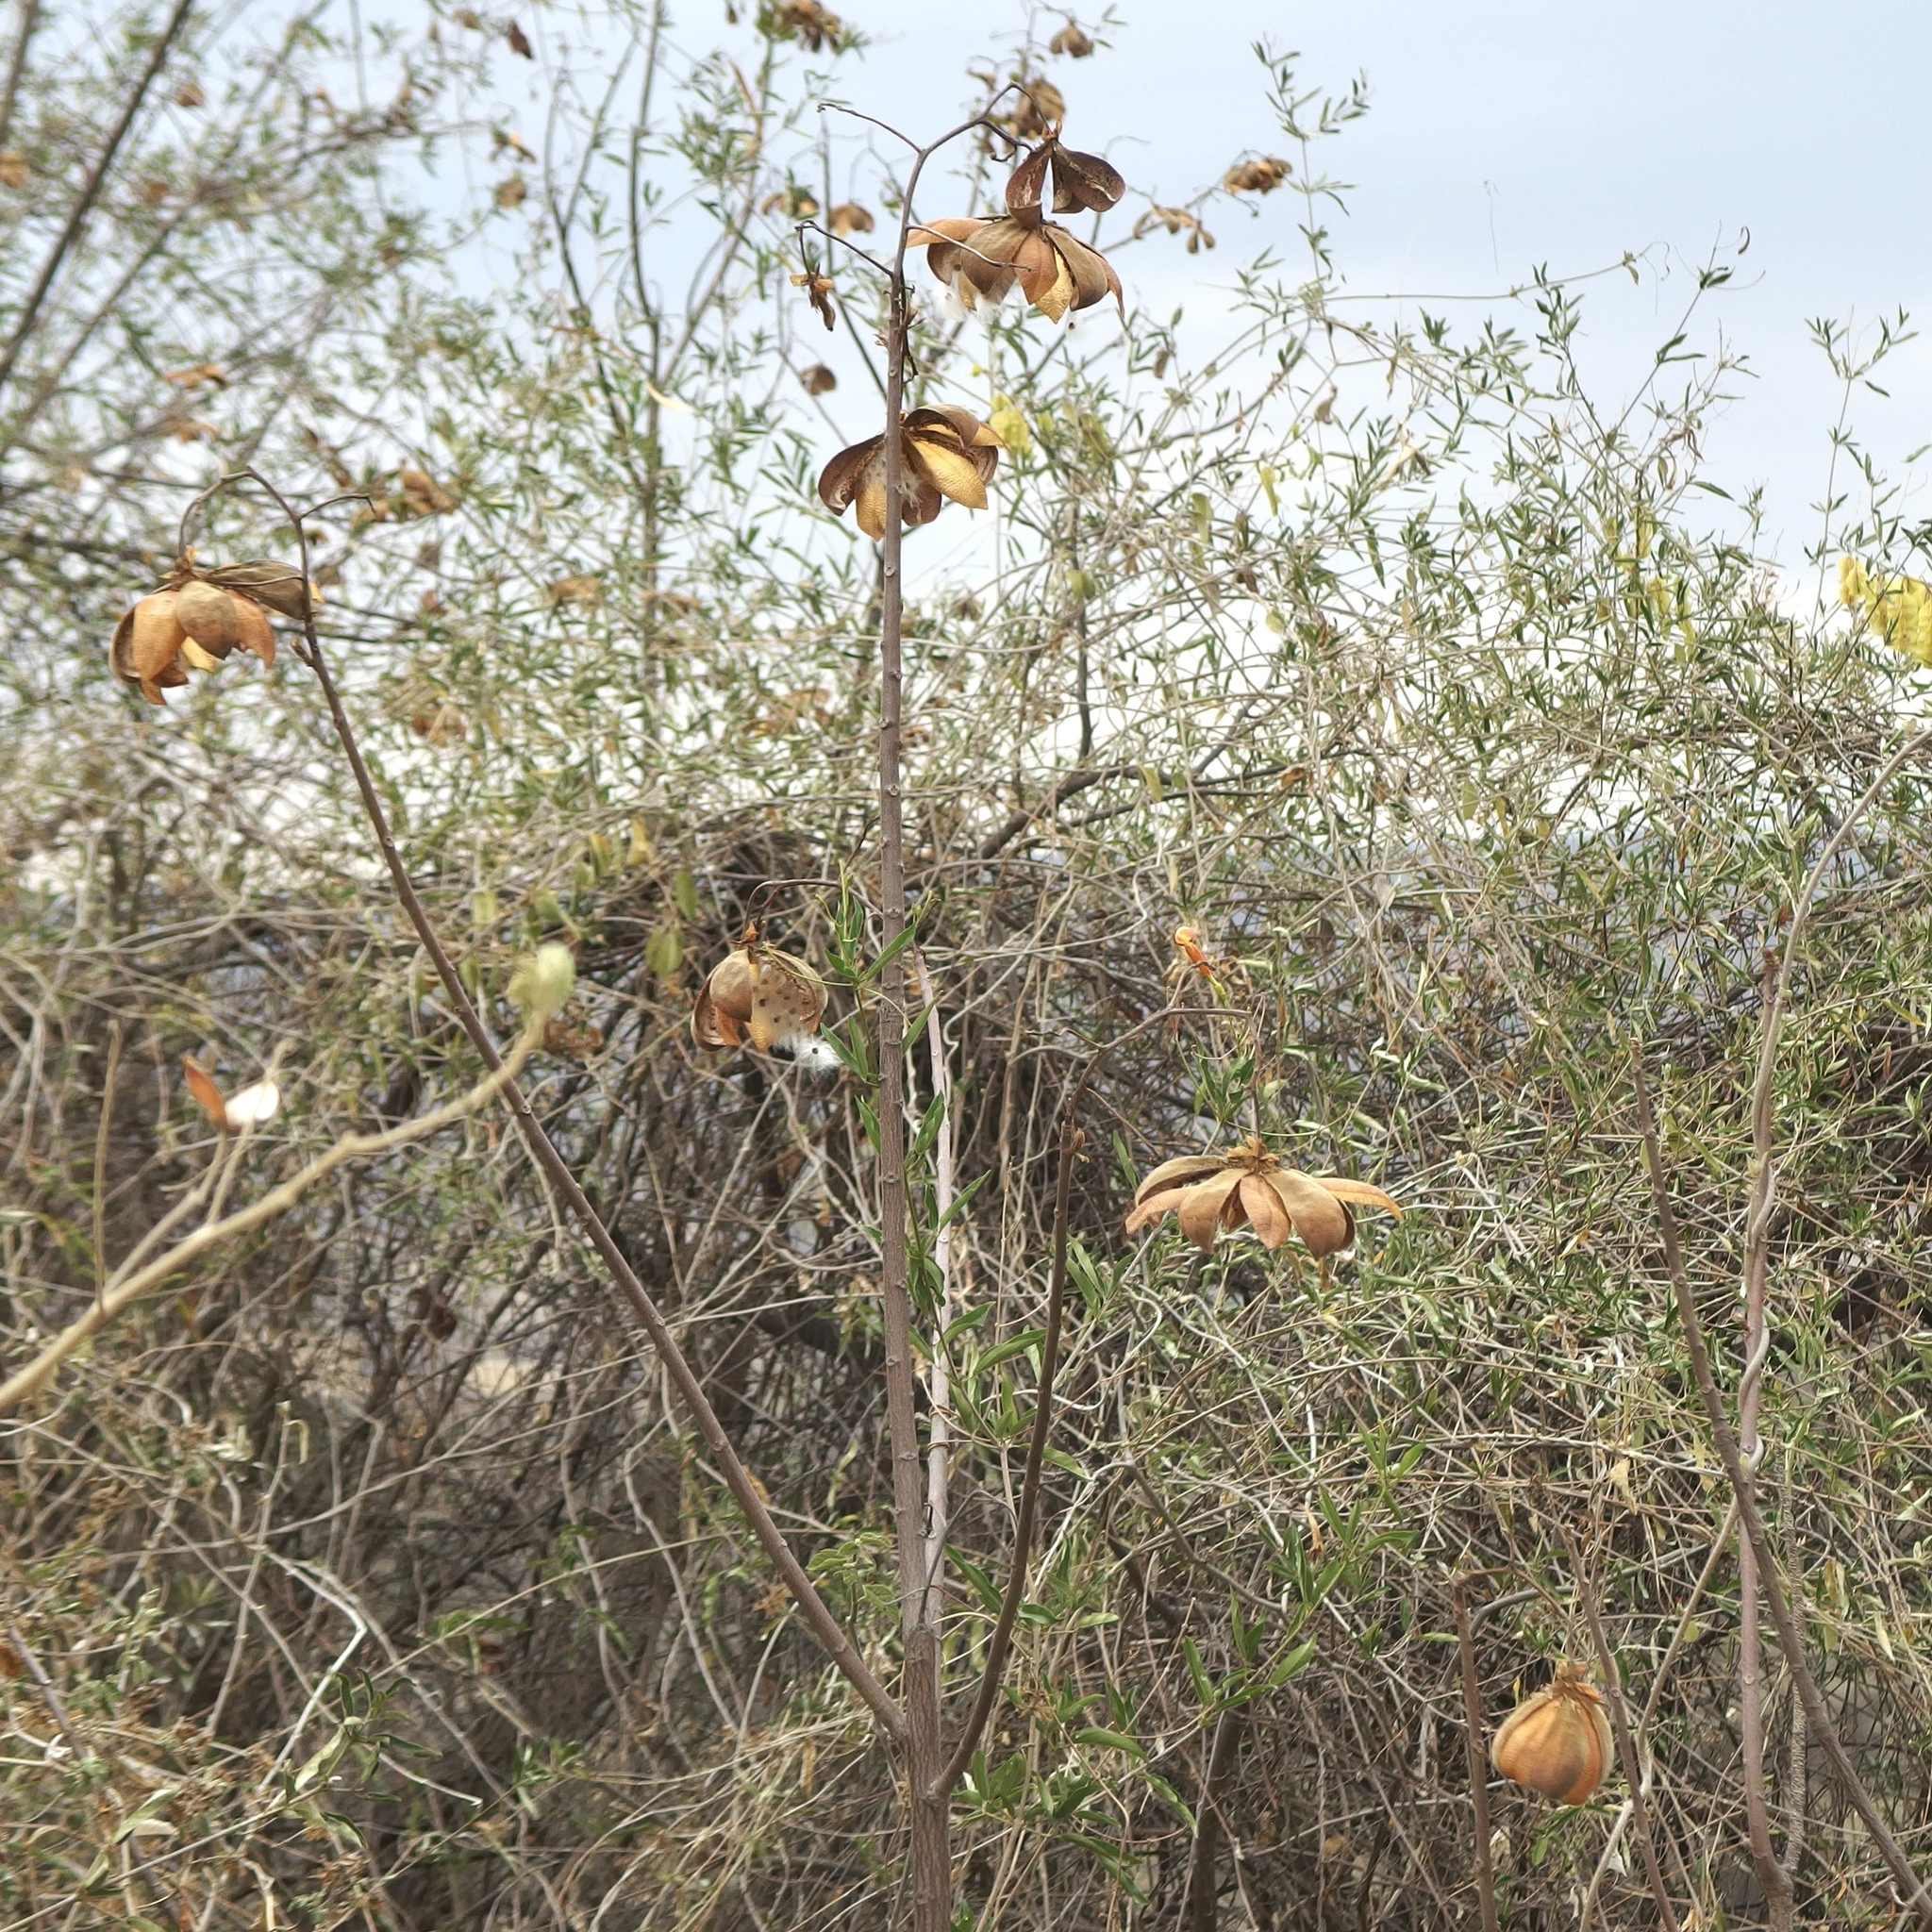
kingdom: Plantae
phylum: Tracheophyta
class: Magnoliopsida
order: Malvales
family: Cochlospermaceae
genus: Cochlospermum
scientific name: Cochlospermum vitifolium
